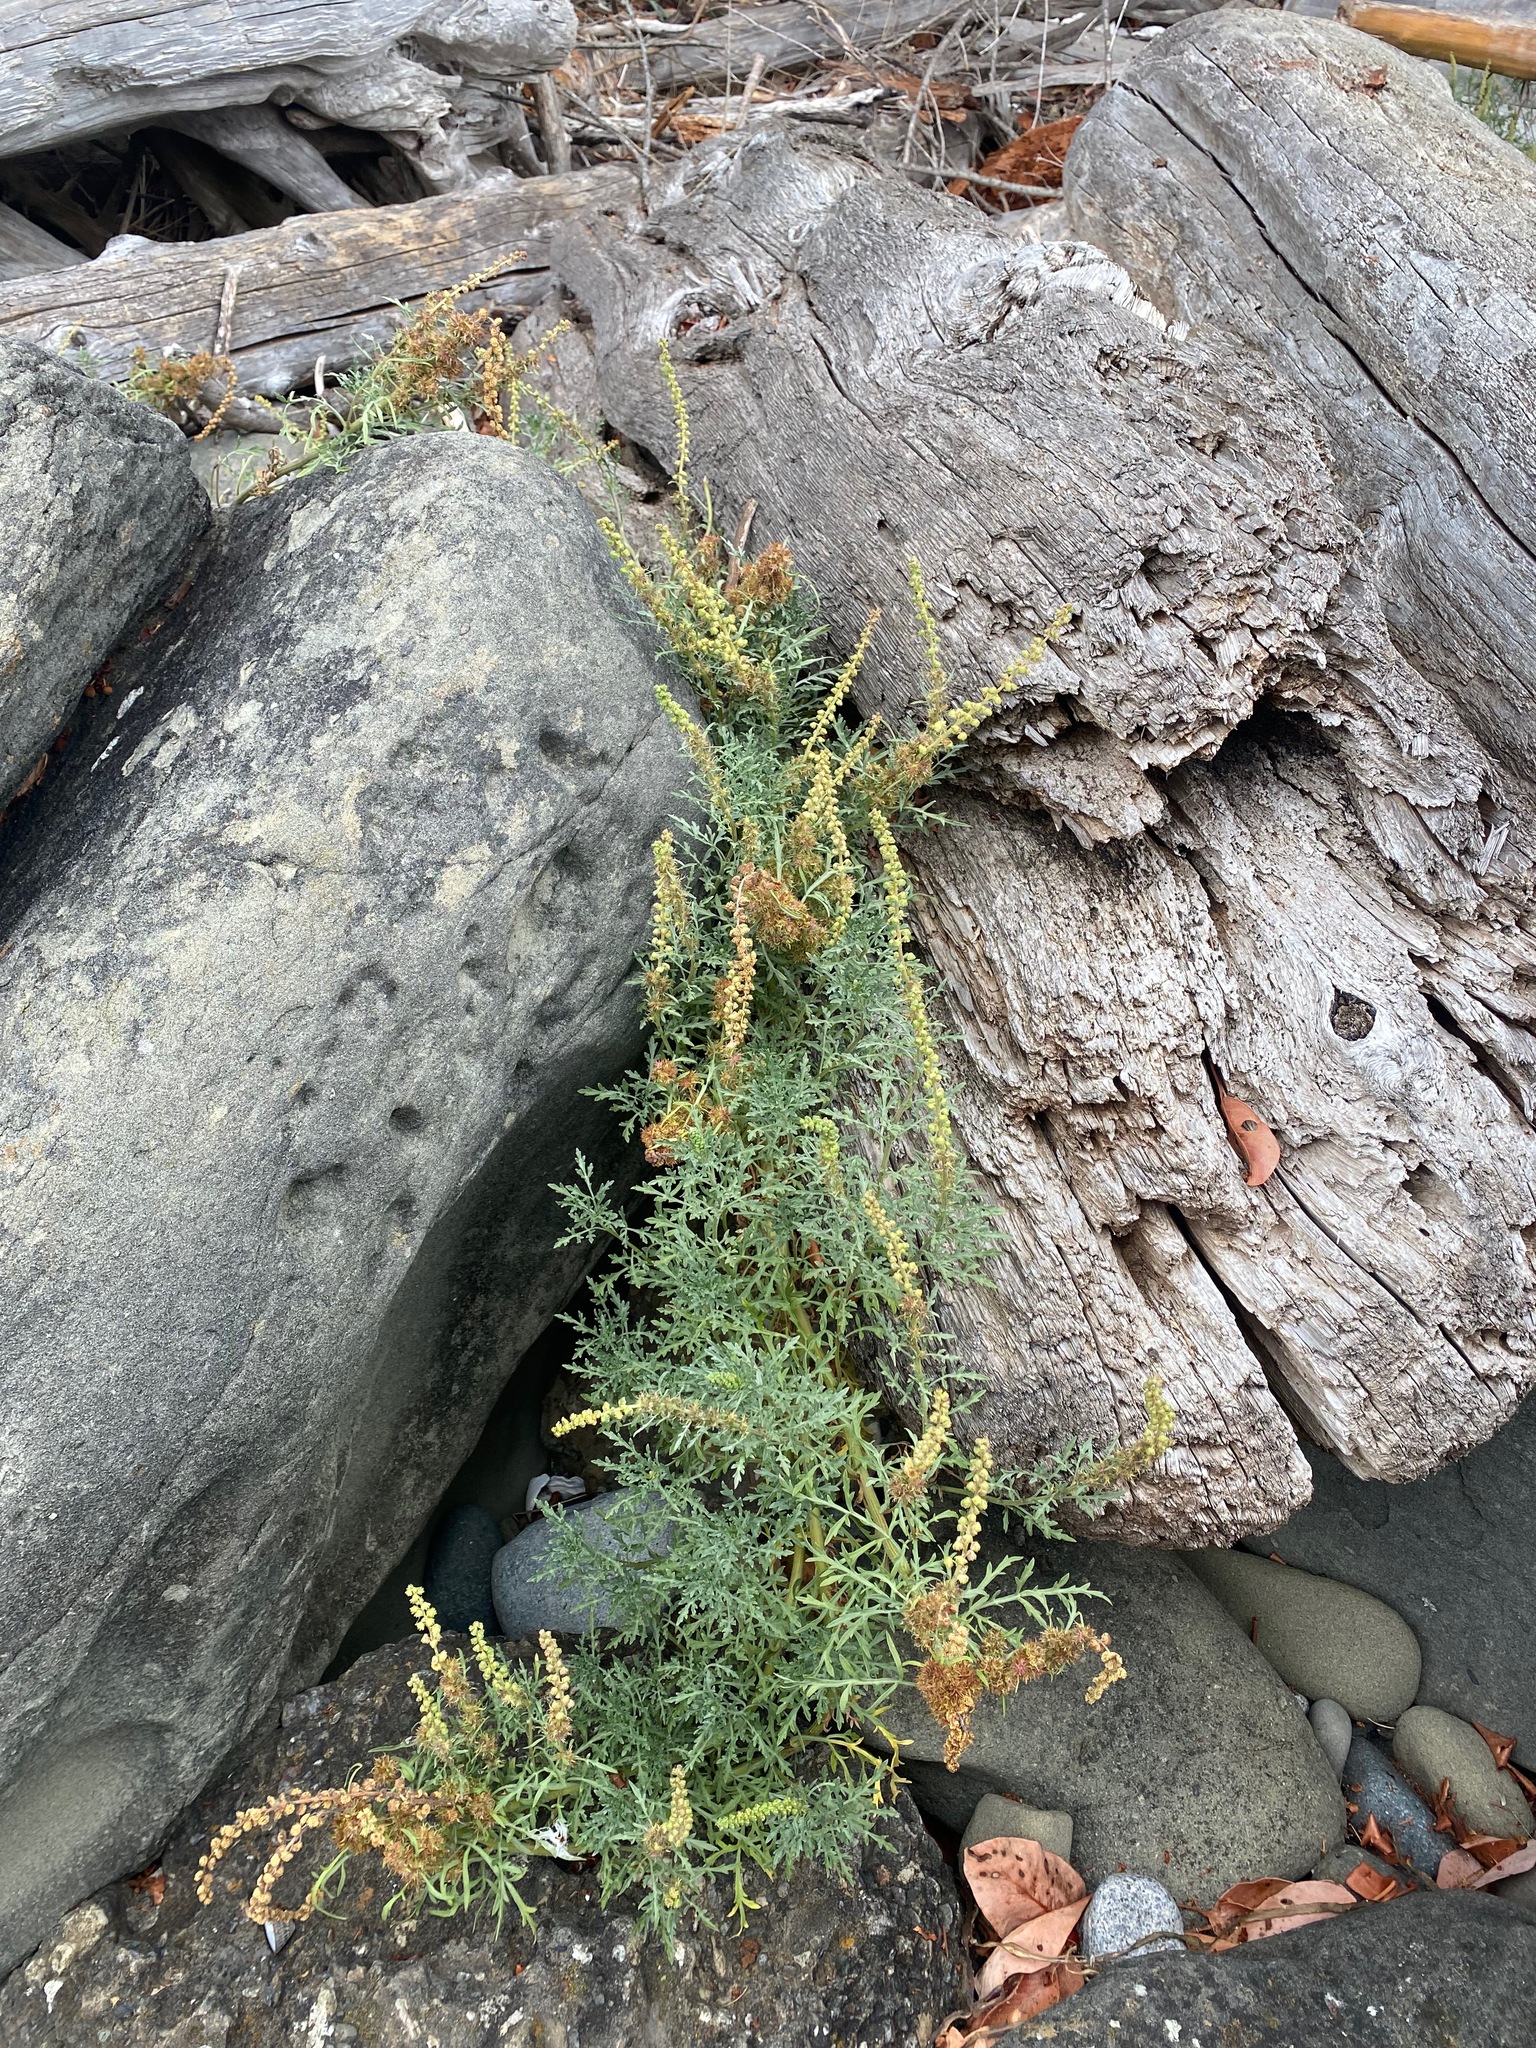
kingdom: Plantae
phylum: Tracheophyta
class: Magnoliopsida
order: Asterales
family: Asteraceae
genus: Ambrosia
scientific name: Ambrosia chamissonis
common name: Beachbur
